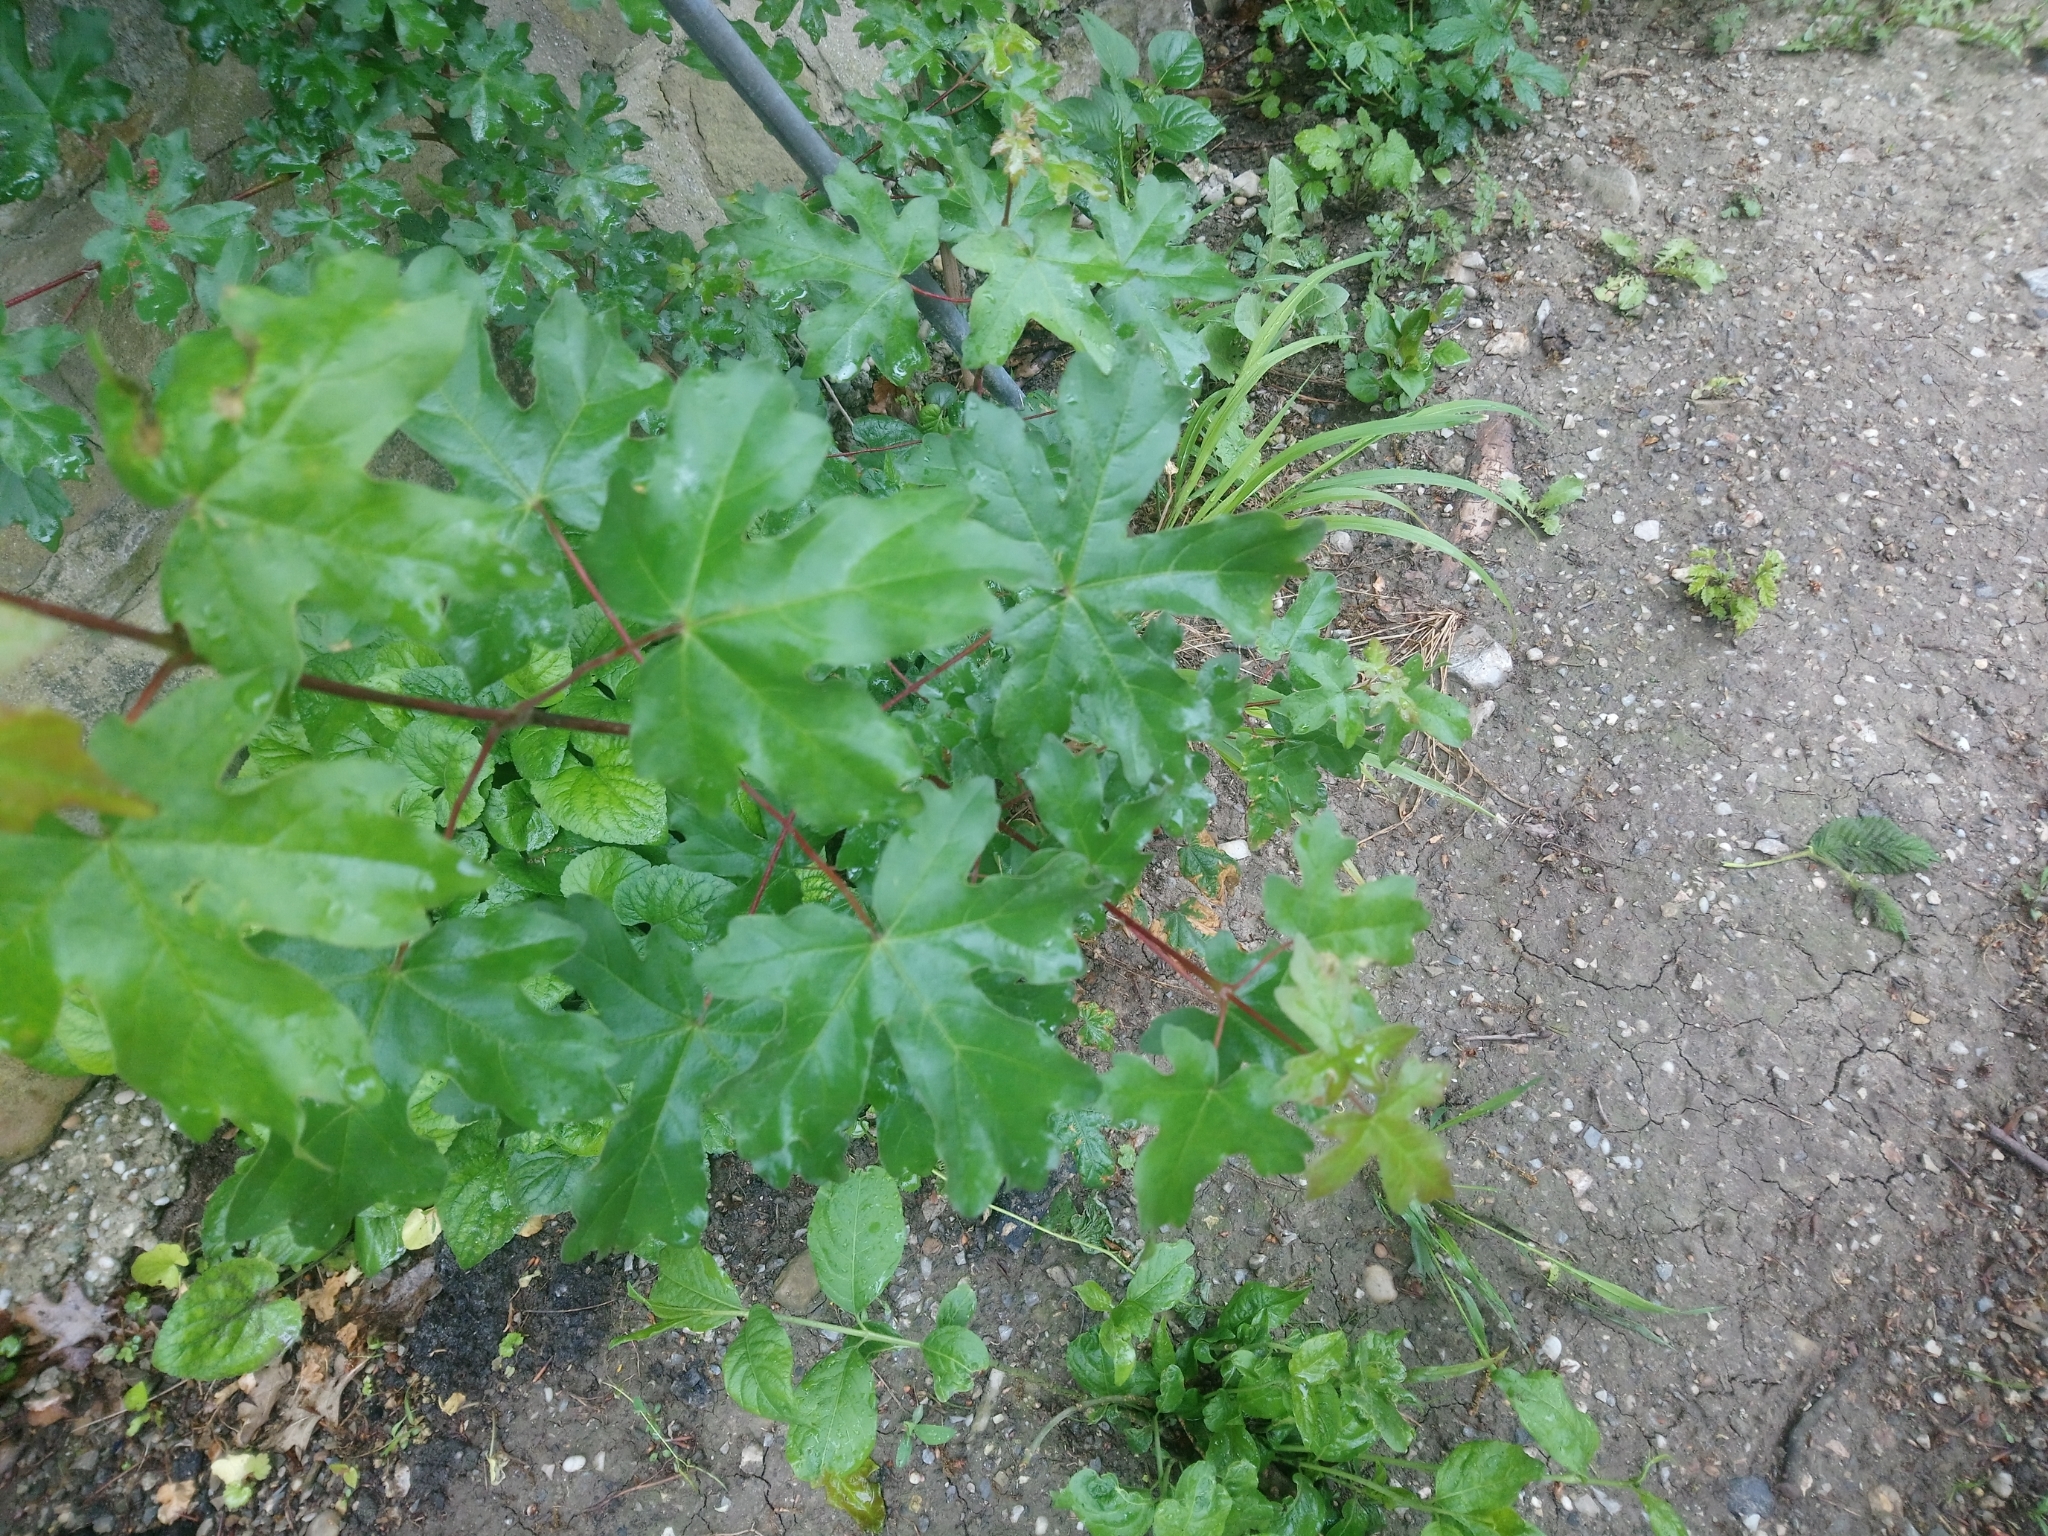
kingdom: Plantae
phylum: Tracheophyta
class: Magnoliopsida
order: Sapindales
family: Sapindaceae
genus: Acer
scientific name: Acer campestre
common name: Field maple
